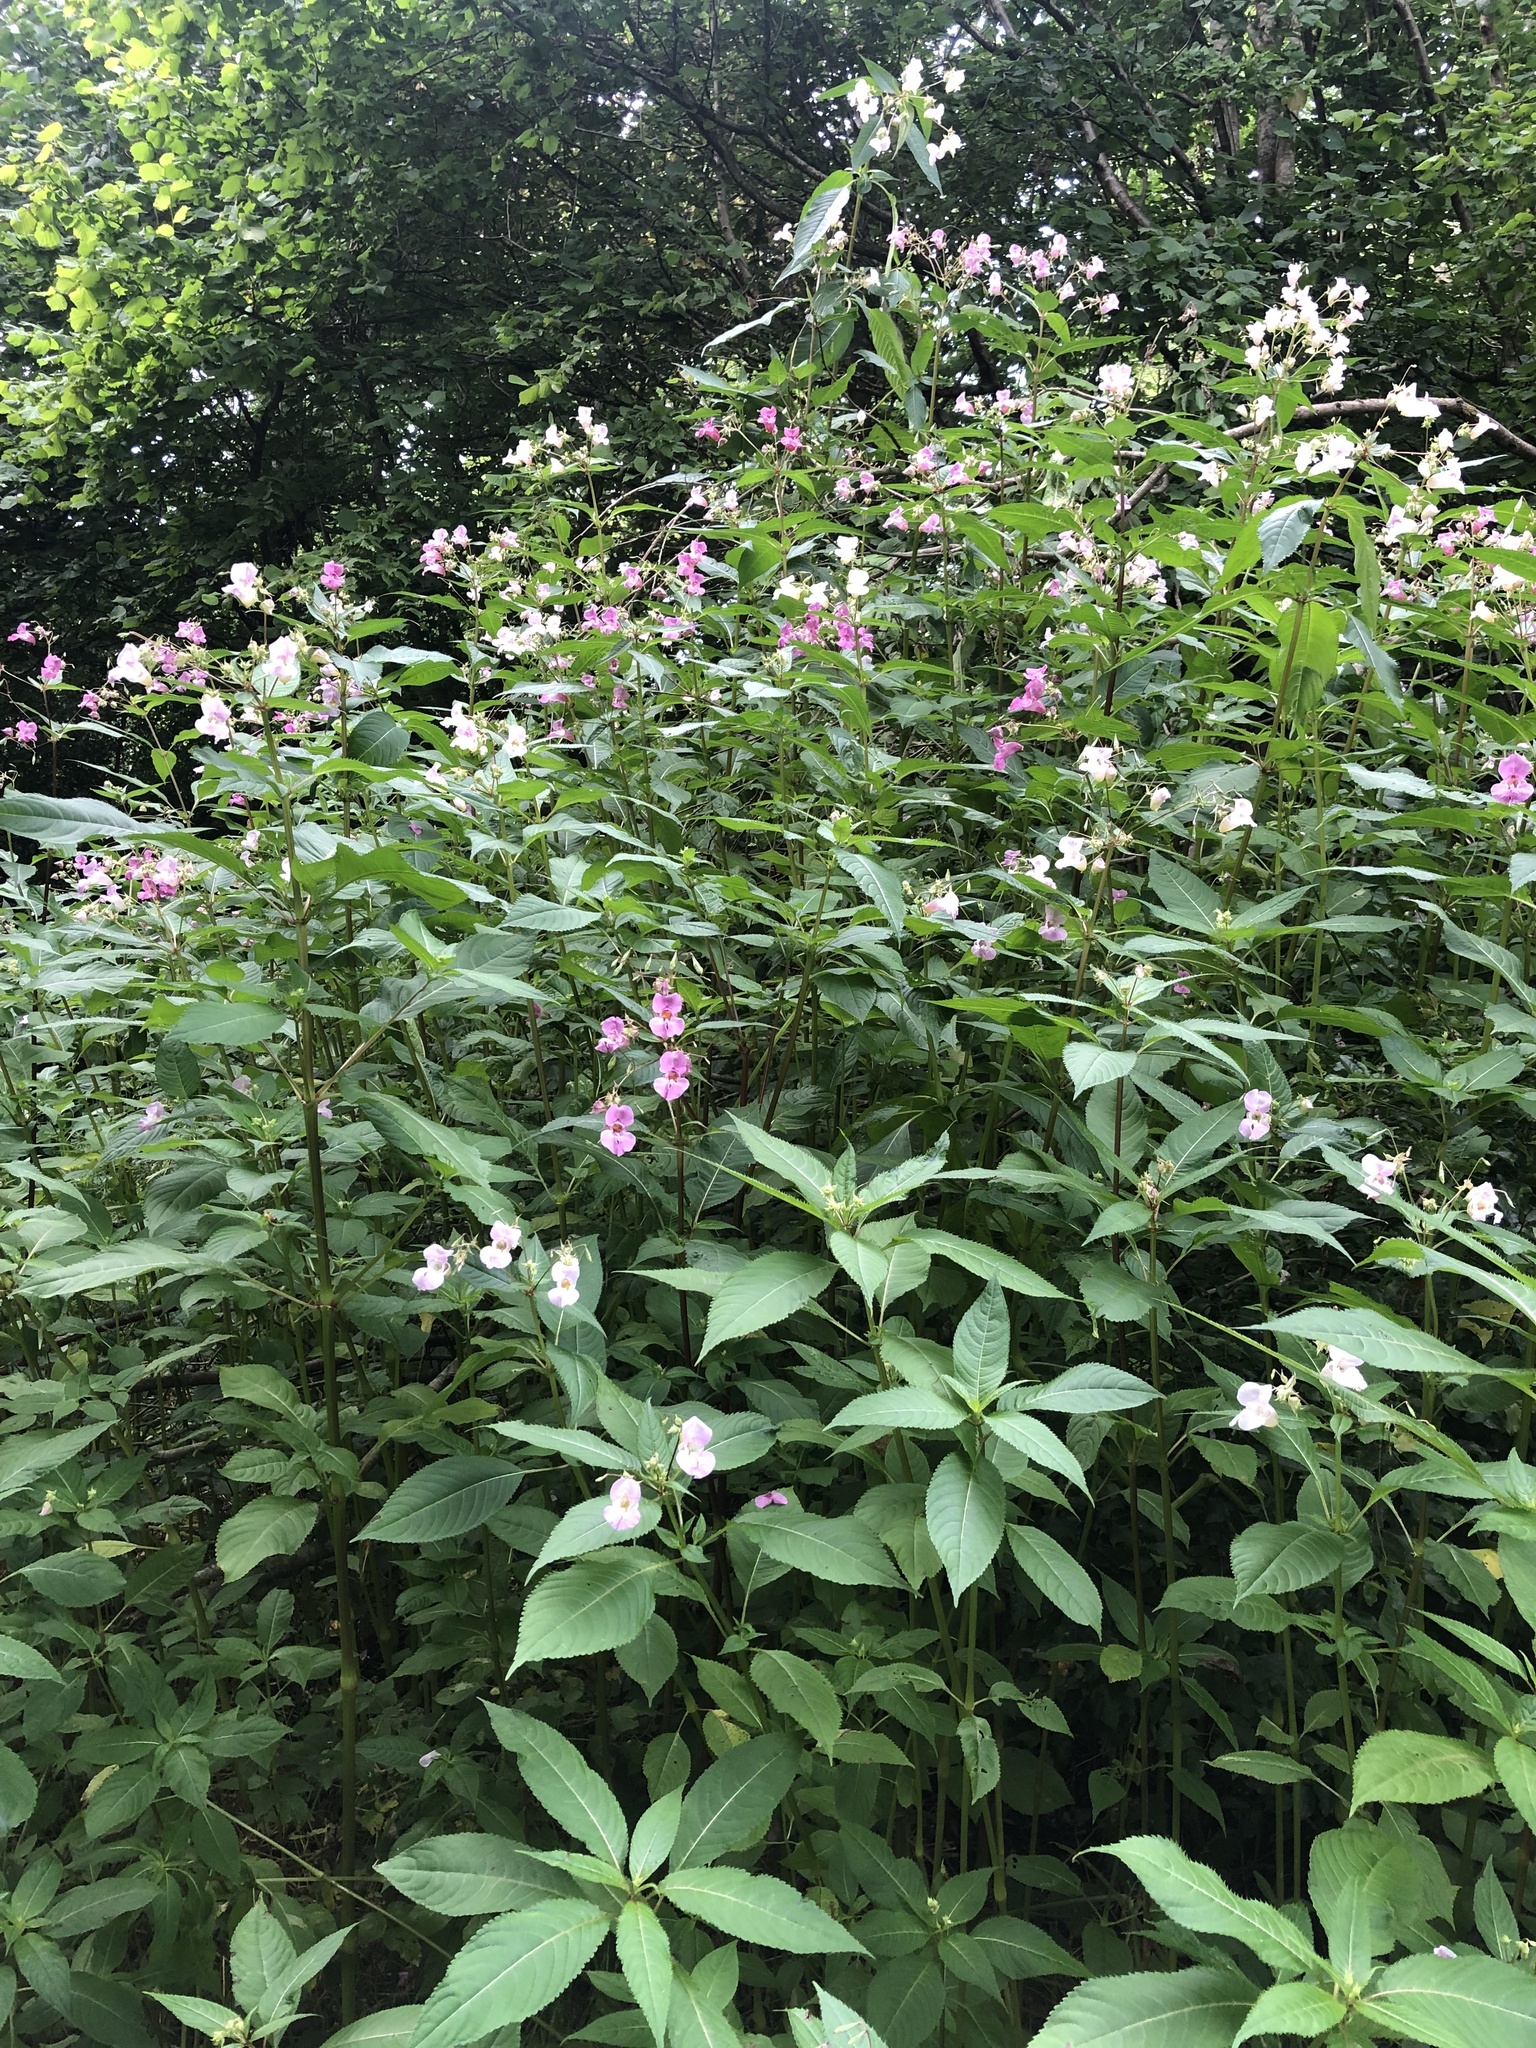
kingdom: Plantae
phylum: Tracheophyta
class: Magnoliopsida
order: Ericales
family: Balsaminaceae
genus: Impatiens
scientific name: Impatiens glandulifera
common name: Himalayan balsam
